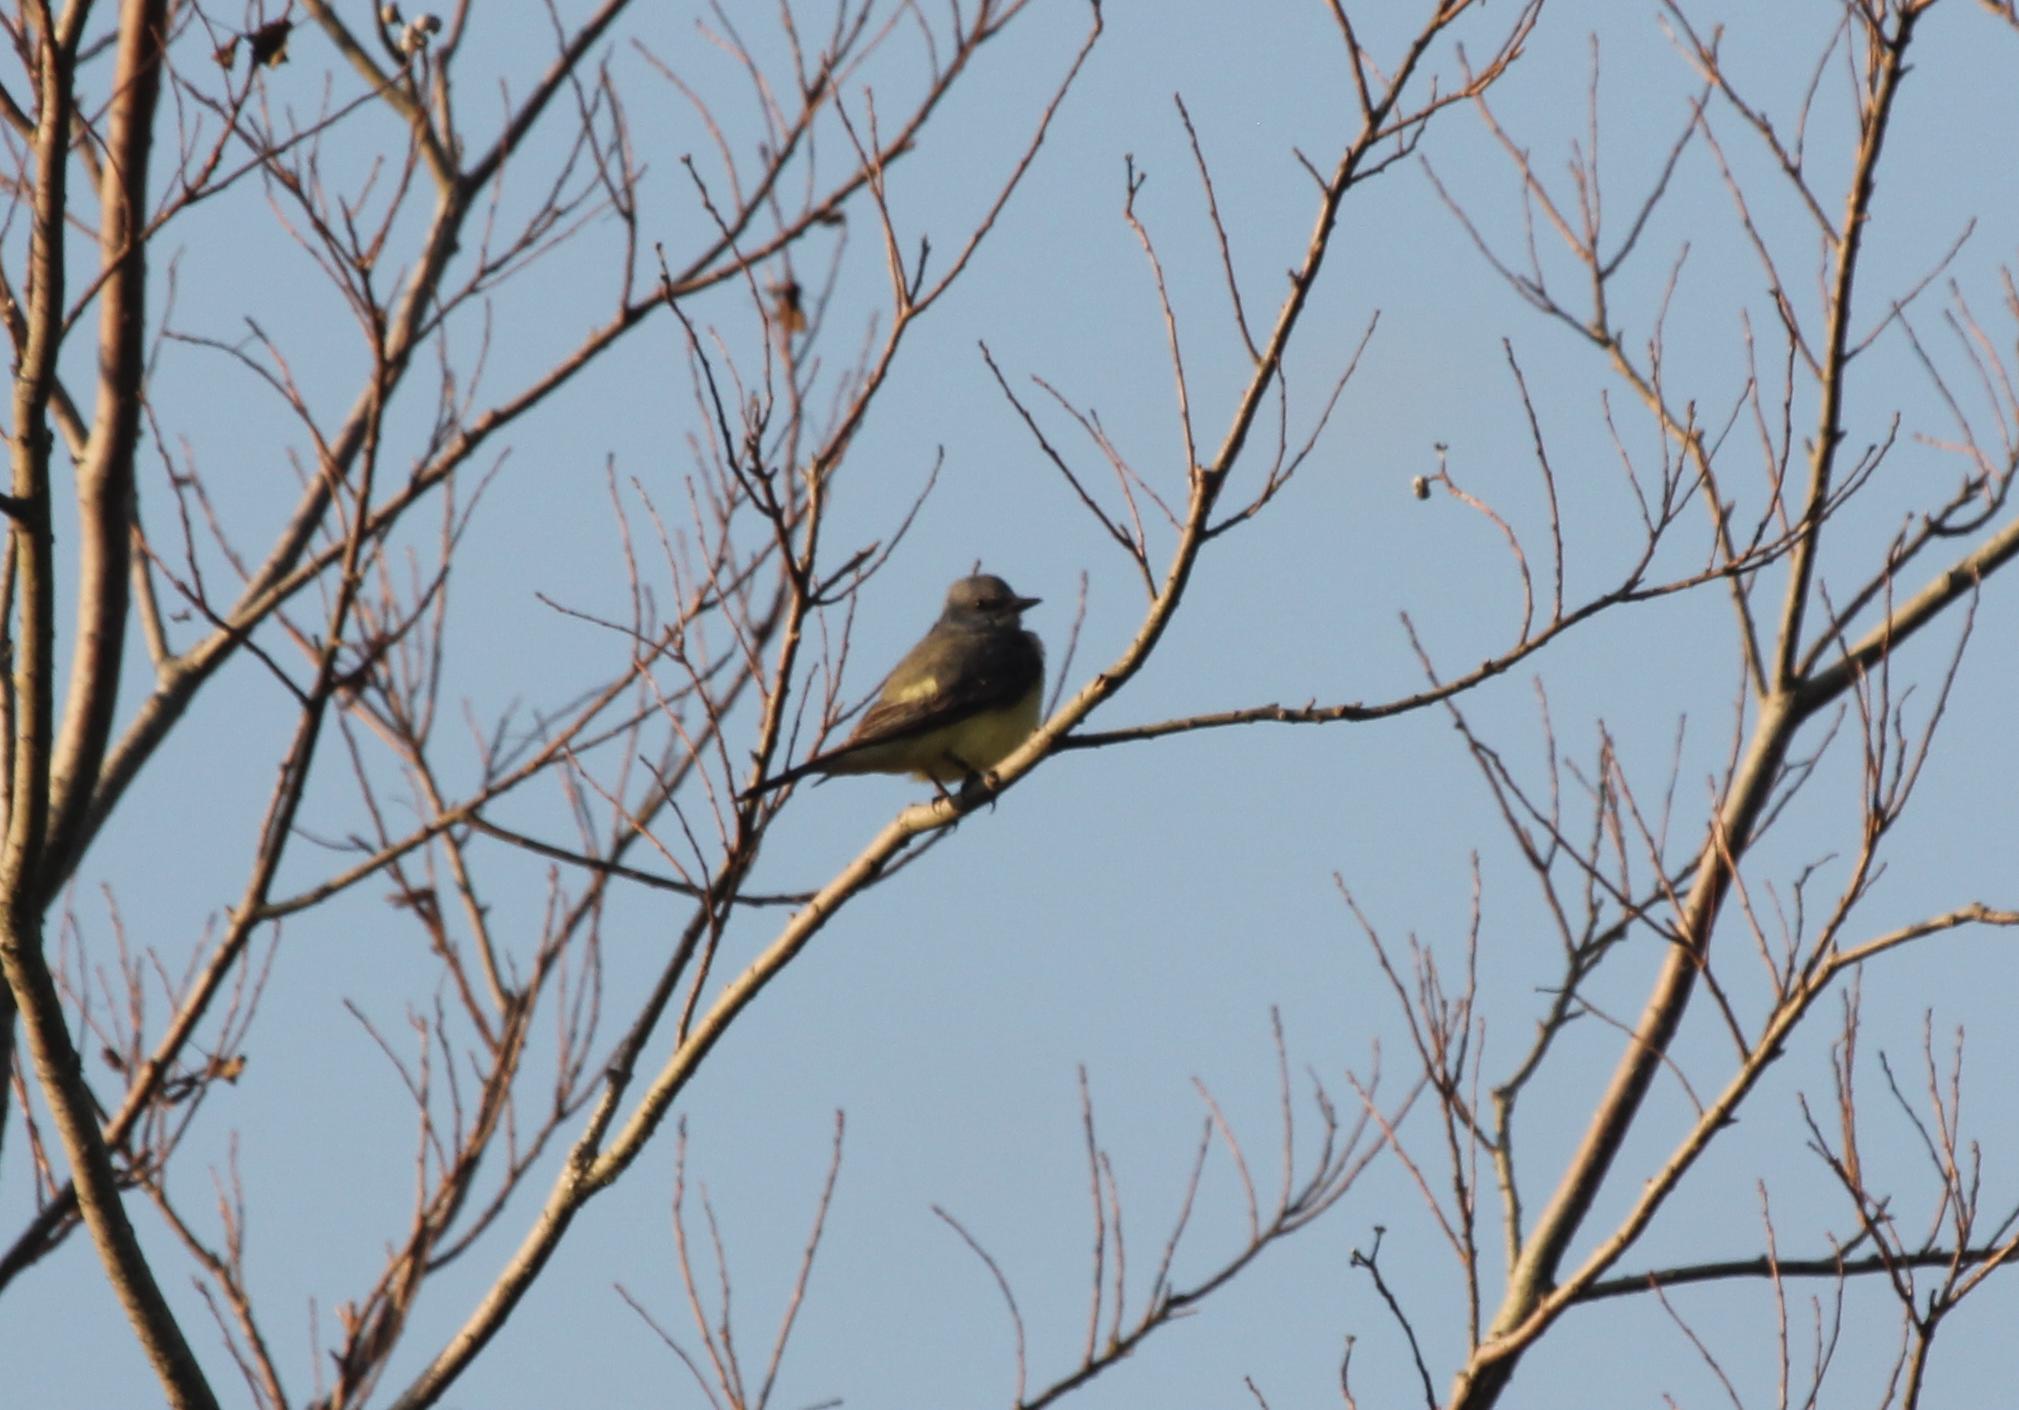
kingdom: Animalia
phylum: Chordata
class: Aves
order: Passeriformes
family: Tyrannidae
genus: Tyrannus
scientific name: Tyrannus verticalis
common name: Western kingbird
